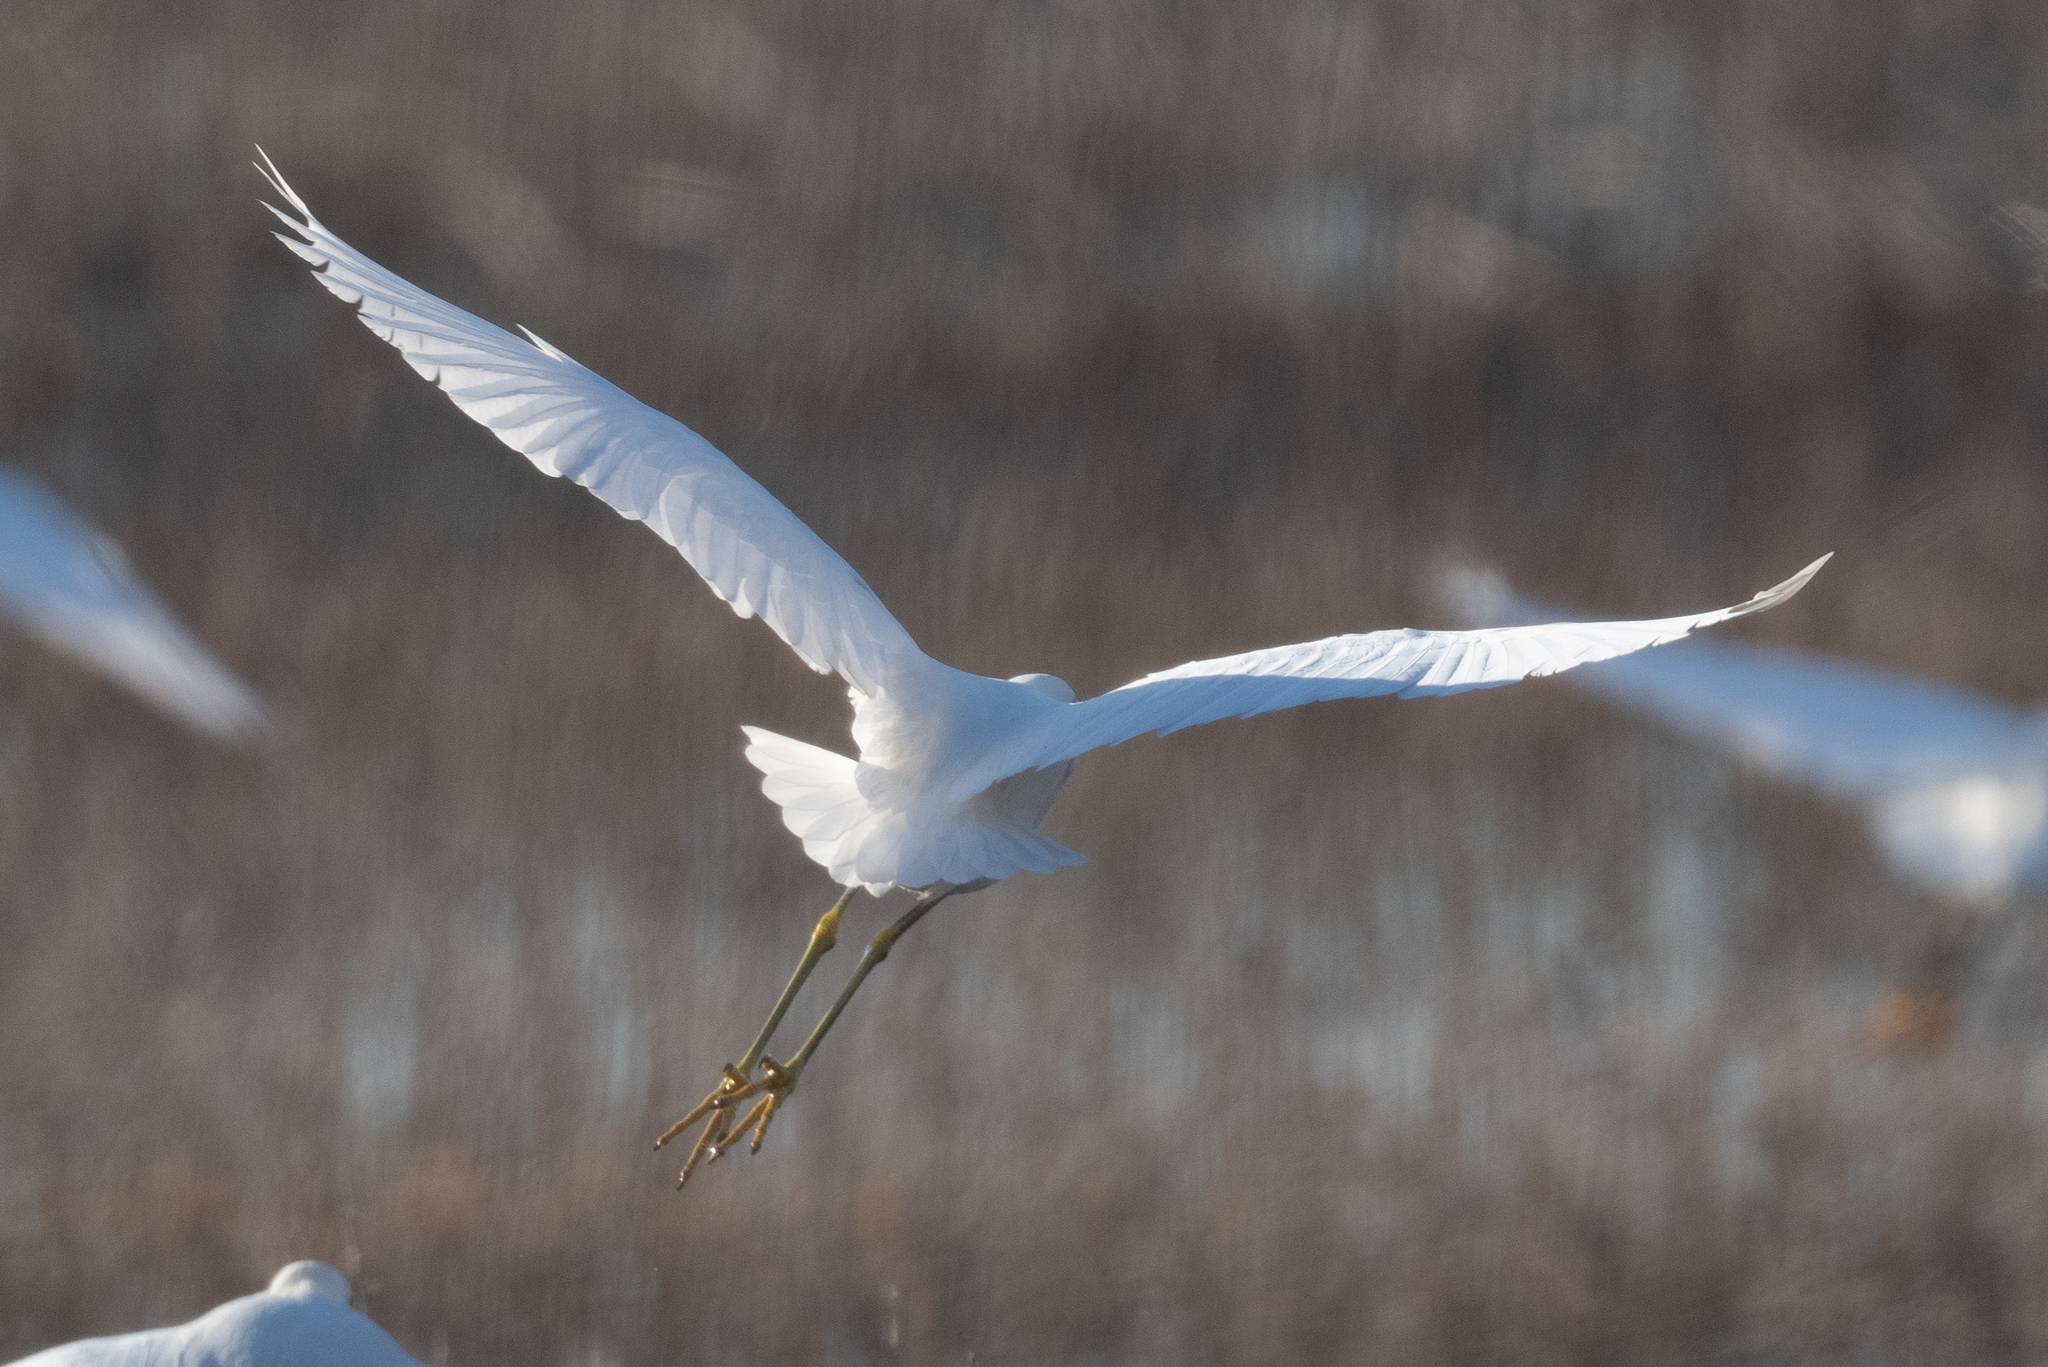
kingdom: Animalia
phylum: Chordata
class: Aves
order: Pelecaniformes
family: Ardeidae
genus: Egretta
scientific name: Egretta thula
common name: Snowy egret
